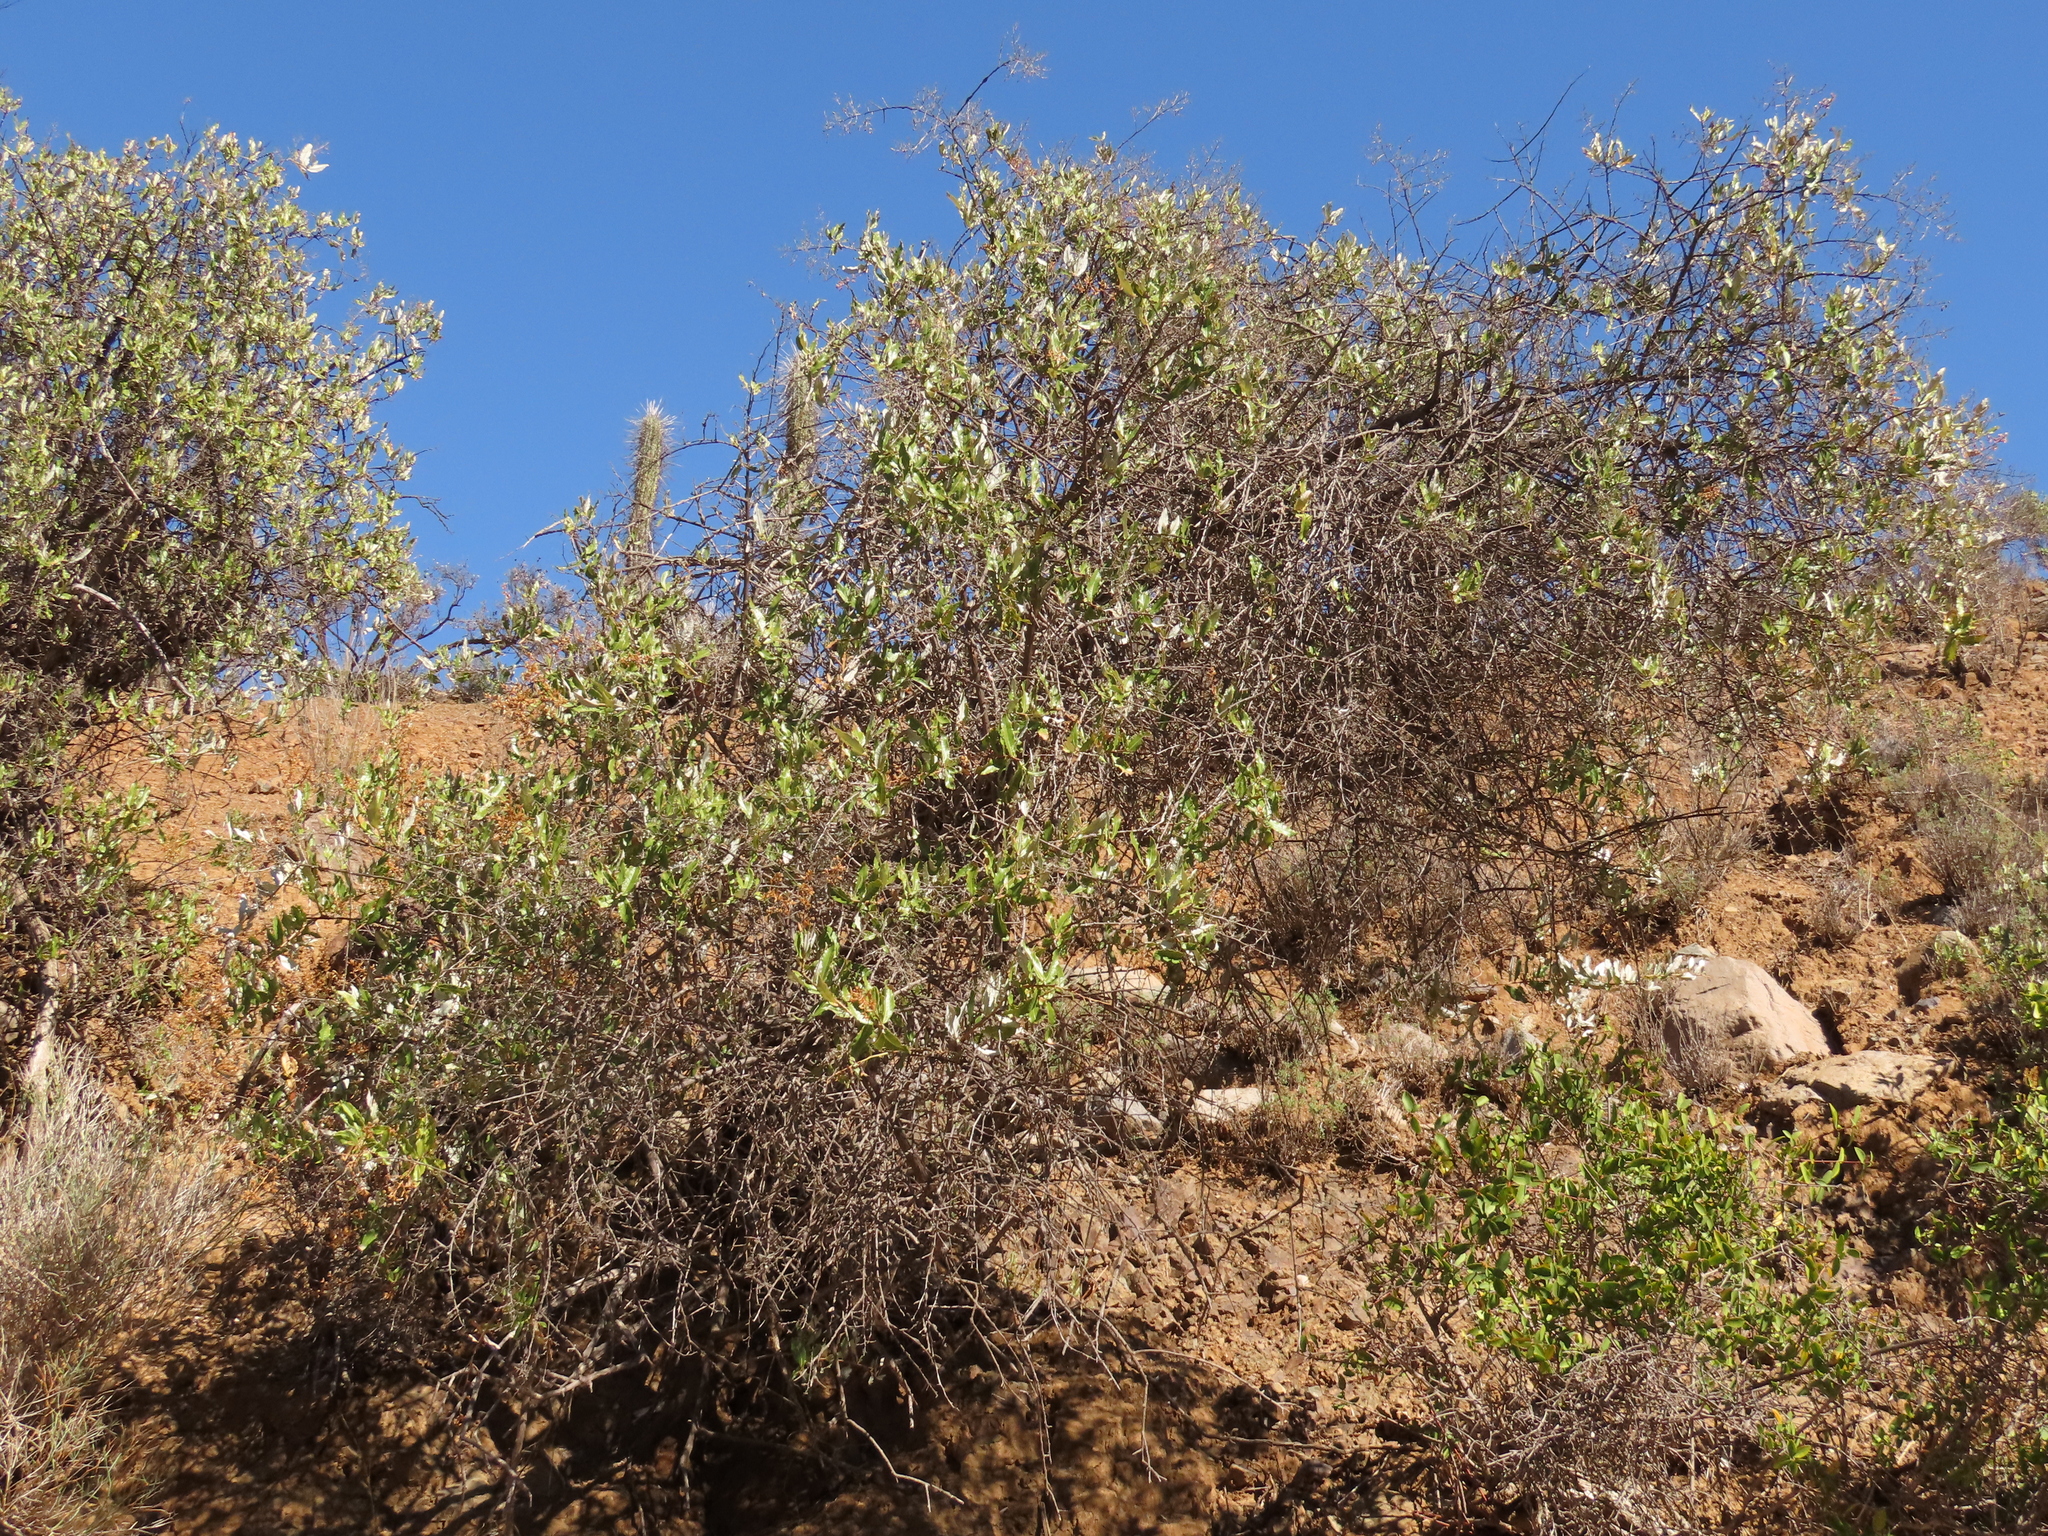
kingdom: Plantae
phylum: Tracheophyta
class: Magnoliopsida
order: Asterales
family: Asteraceae
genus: Spinoliva
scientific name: Spinoliva ilicifolia
